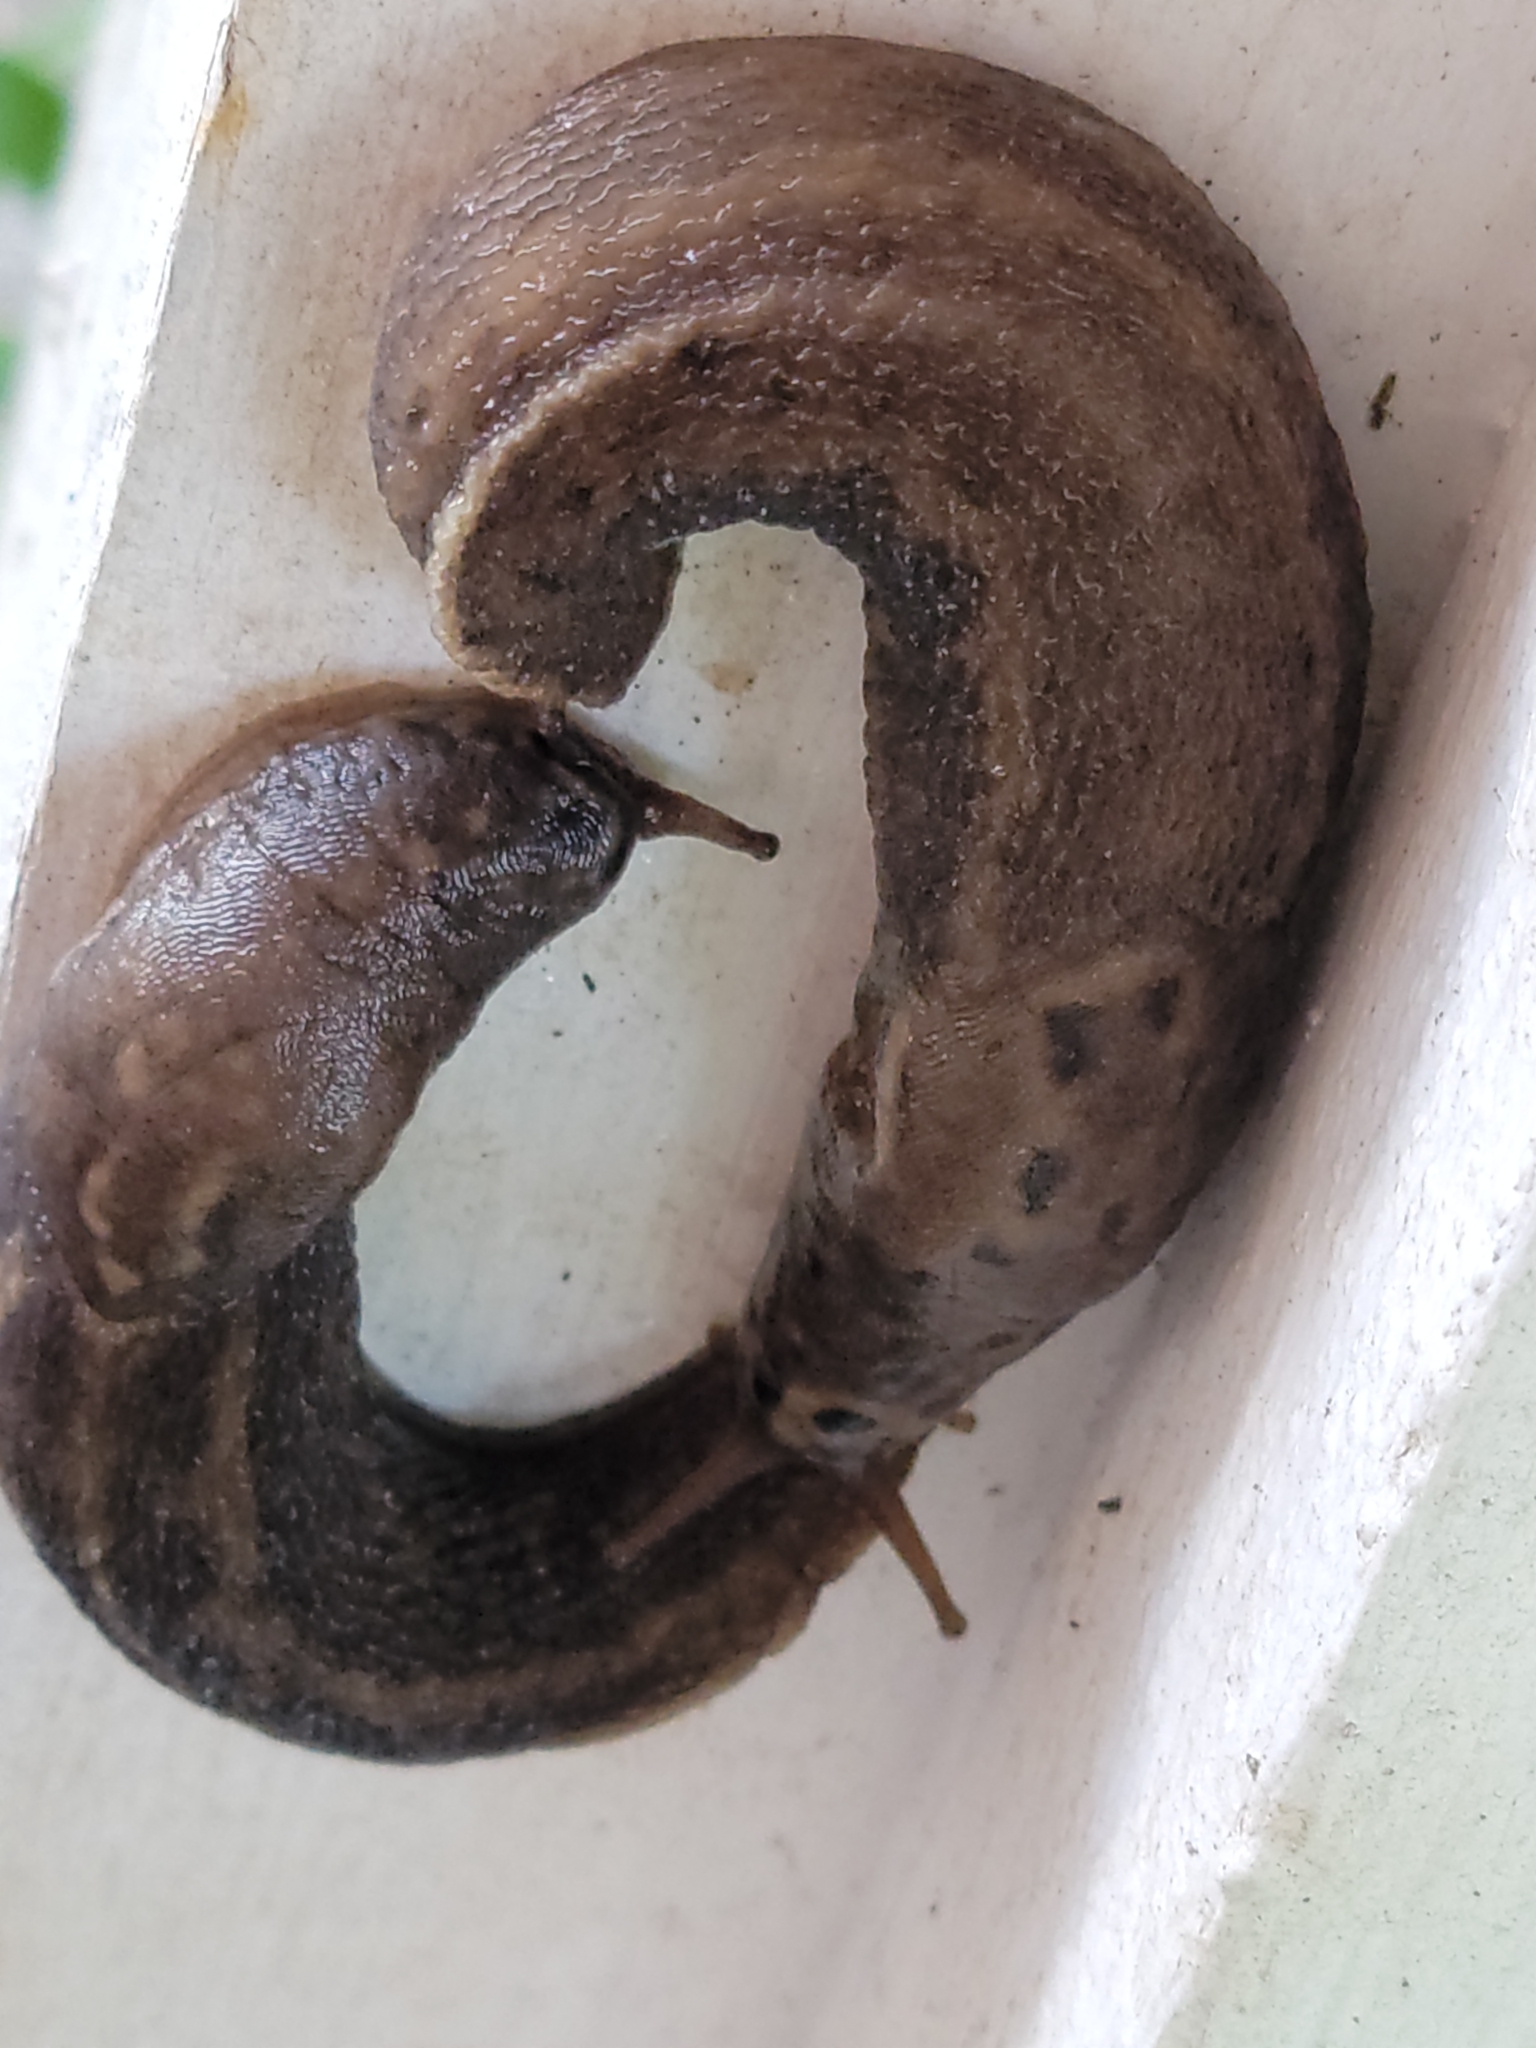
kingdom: Animalia
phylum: Mollusca
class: Gastropoda
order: Stylommatophora
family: Limacidae
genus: Limax
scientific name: Limax maximus
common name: Great grey slug
